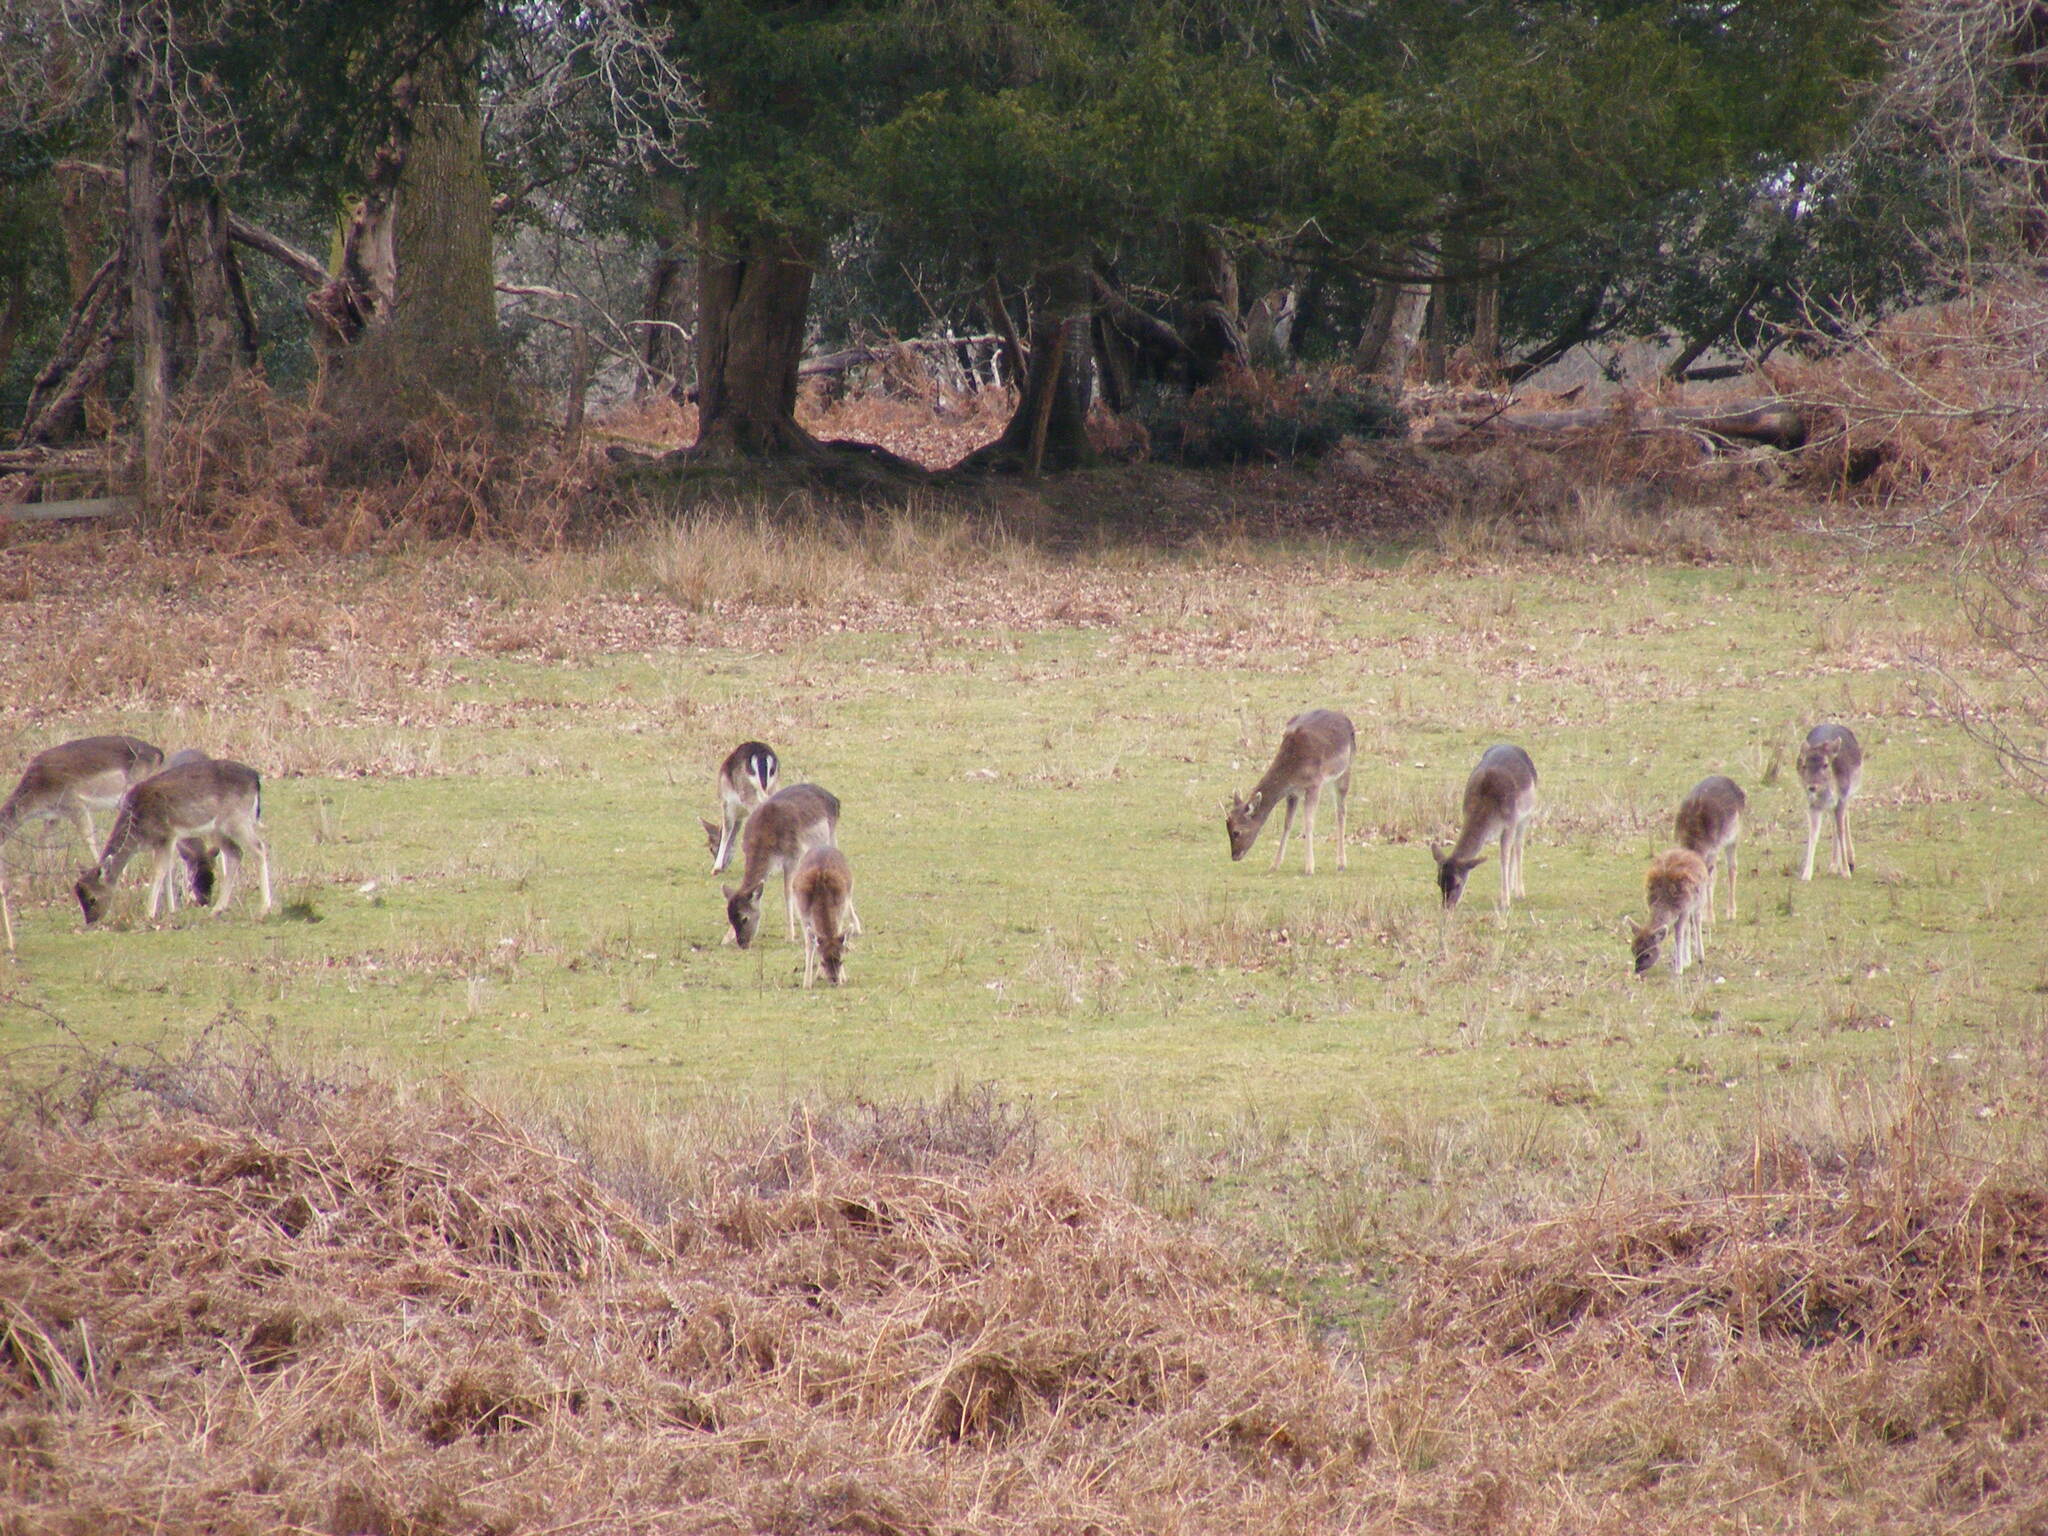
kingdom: Animalia
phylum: Chordata
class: Mammalia
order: Artiodactyla
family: Cervidae
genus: Dama
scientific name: Dama dama
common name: Fallow deer
